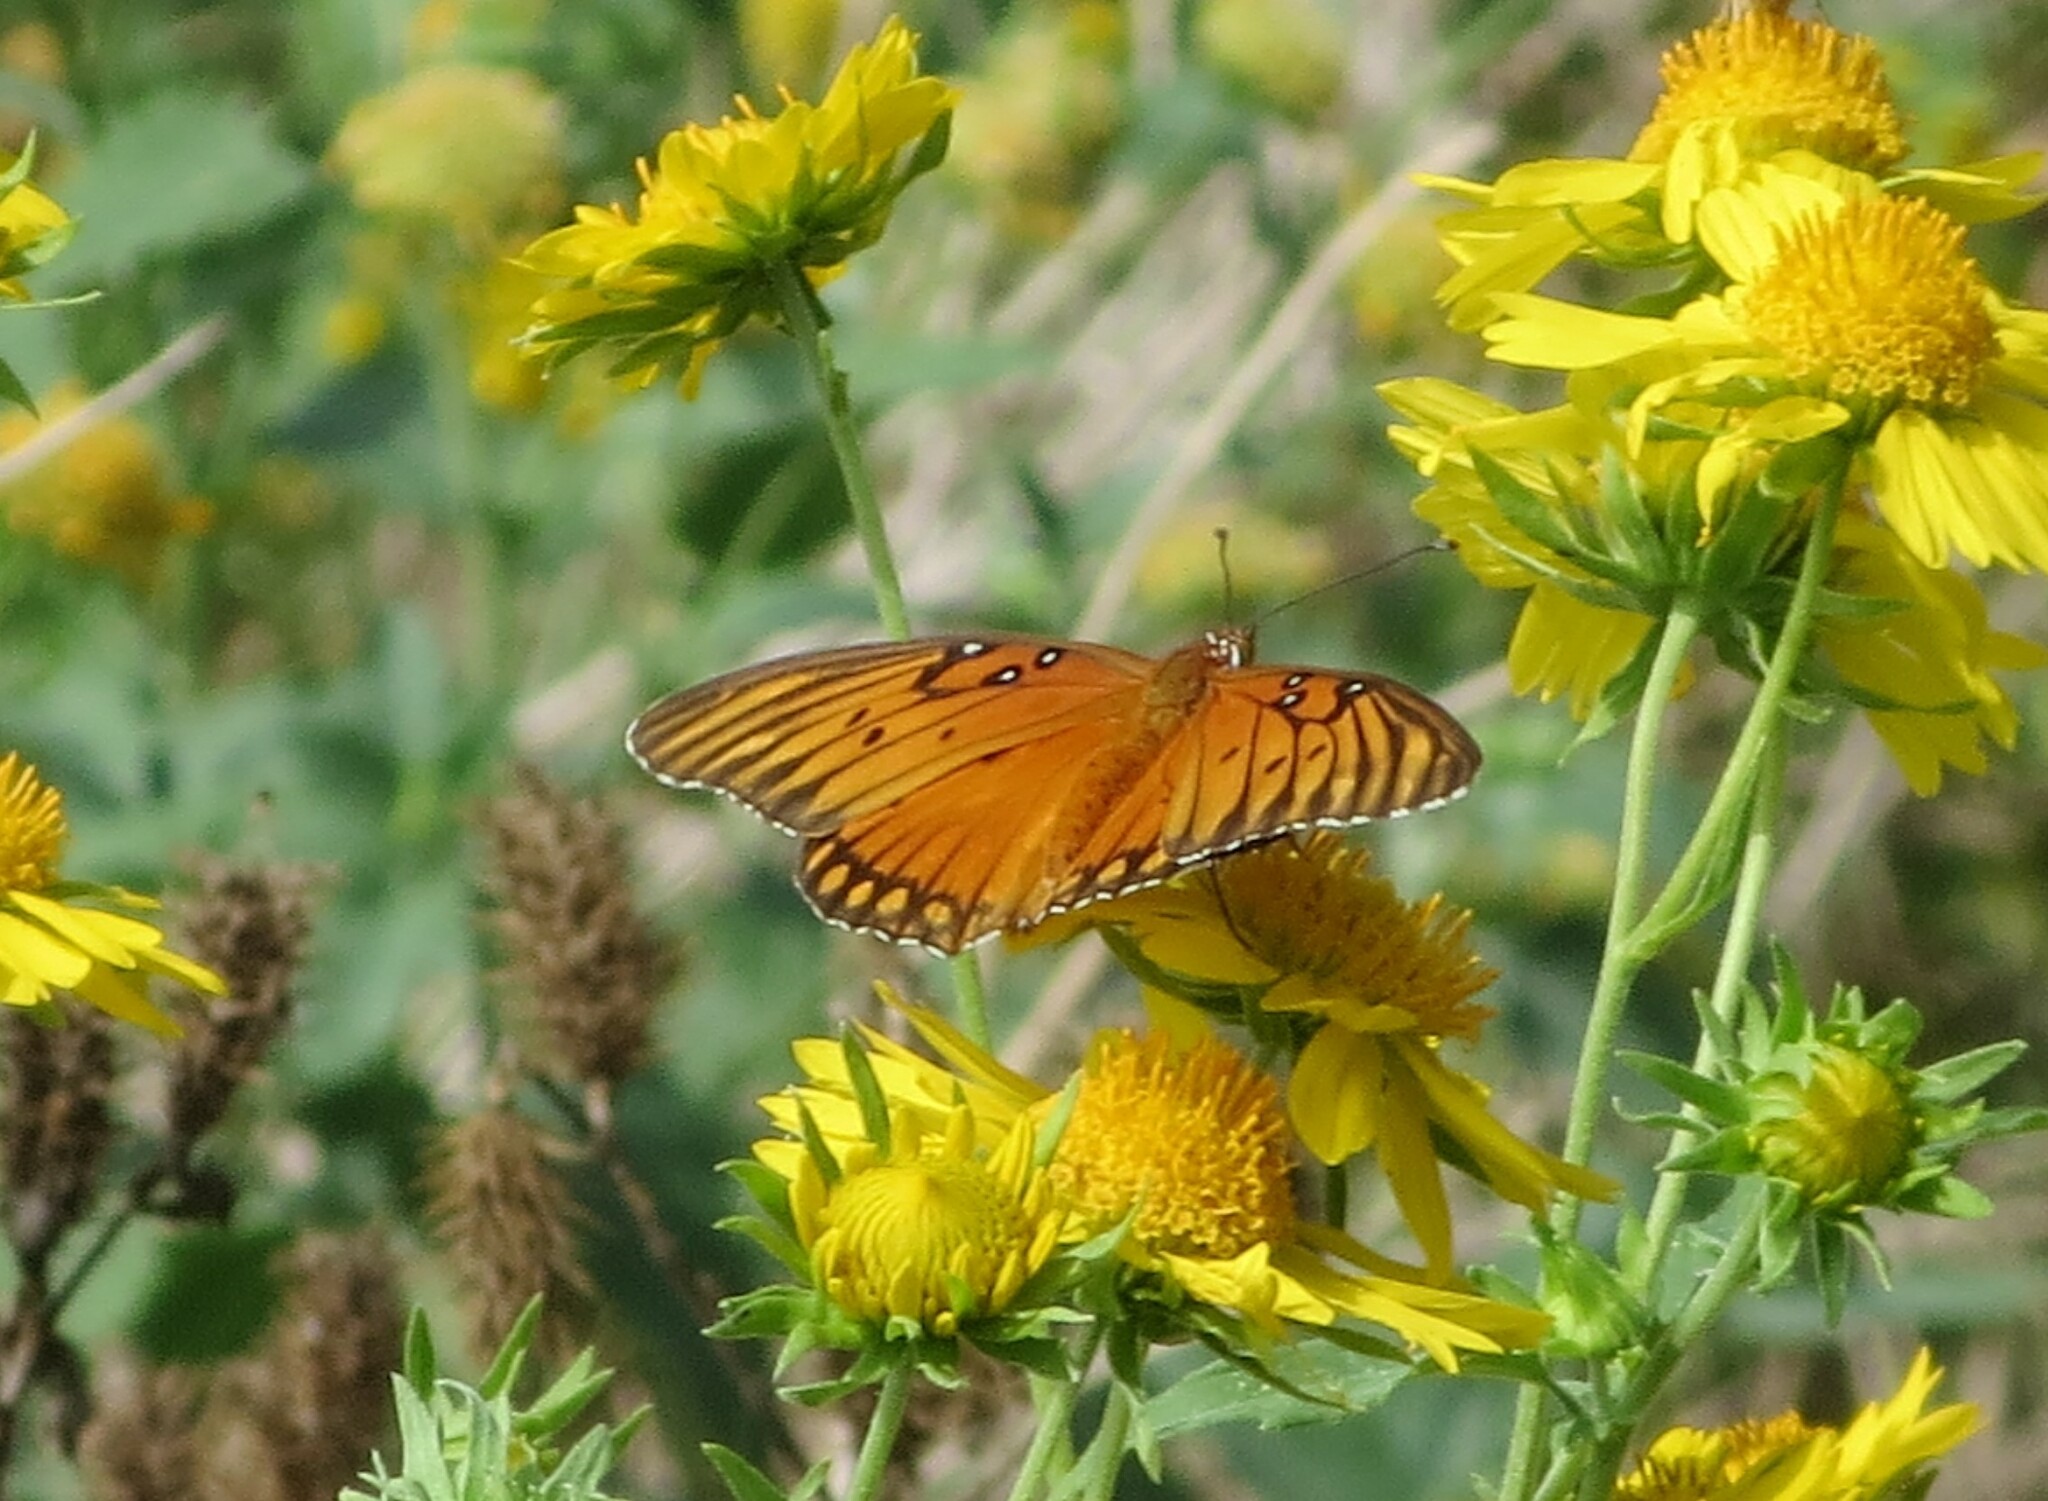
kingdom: Animalia
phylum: Arthropoda
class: Insecta
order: Lepidoptera
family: Nymphalidae
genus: Dione
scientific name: Dione vanillae
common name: Gulf fritillary
